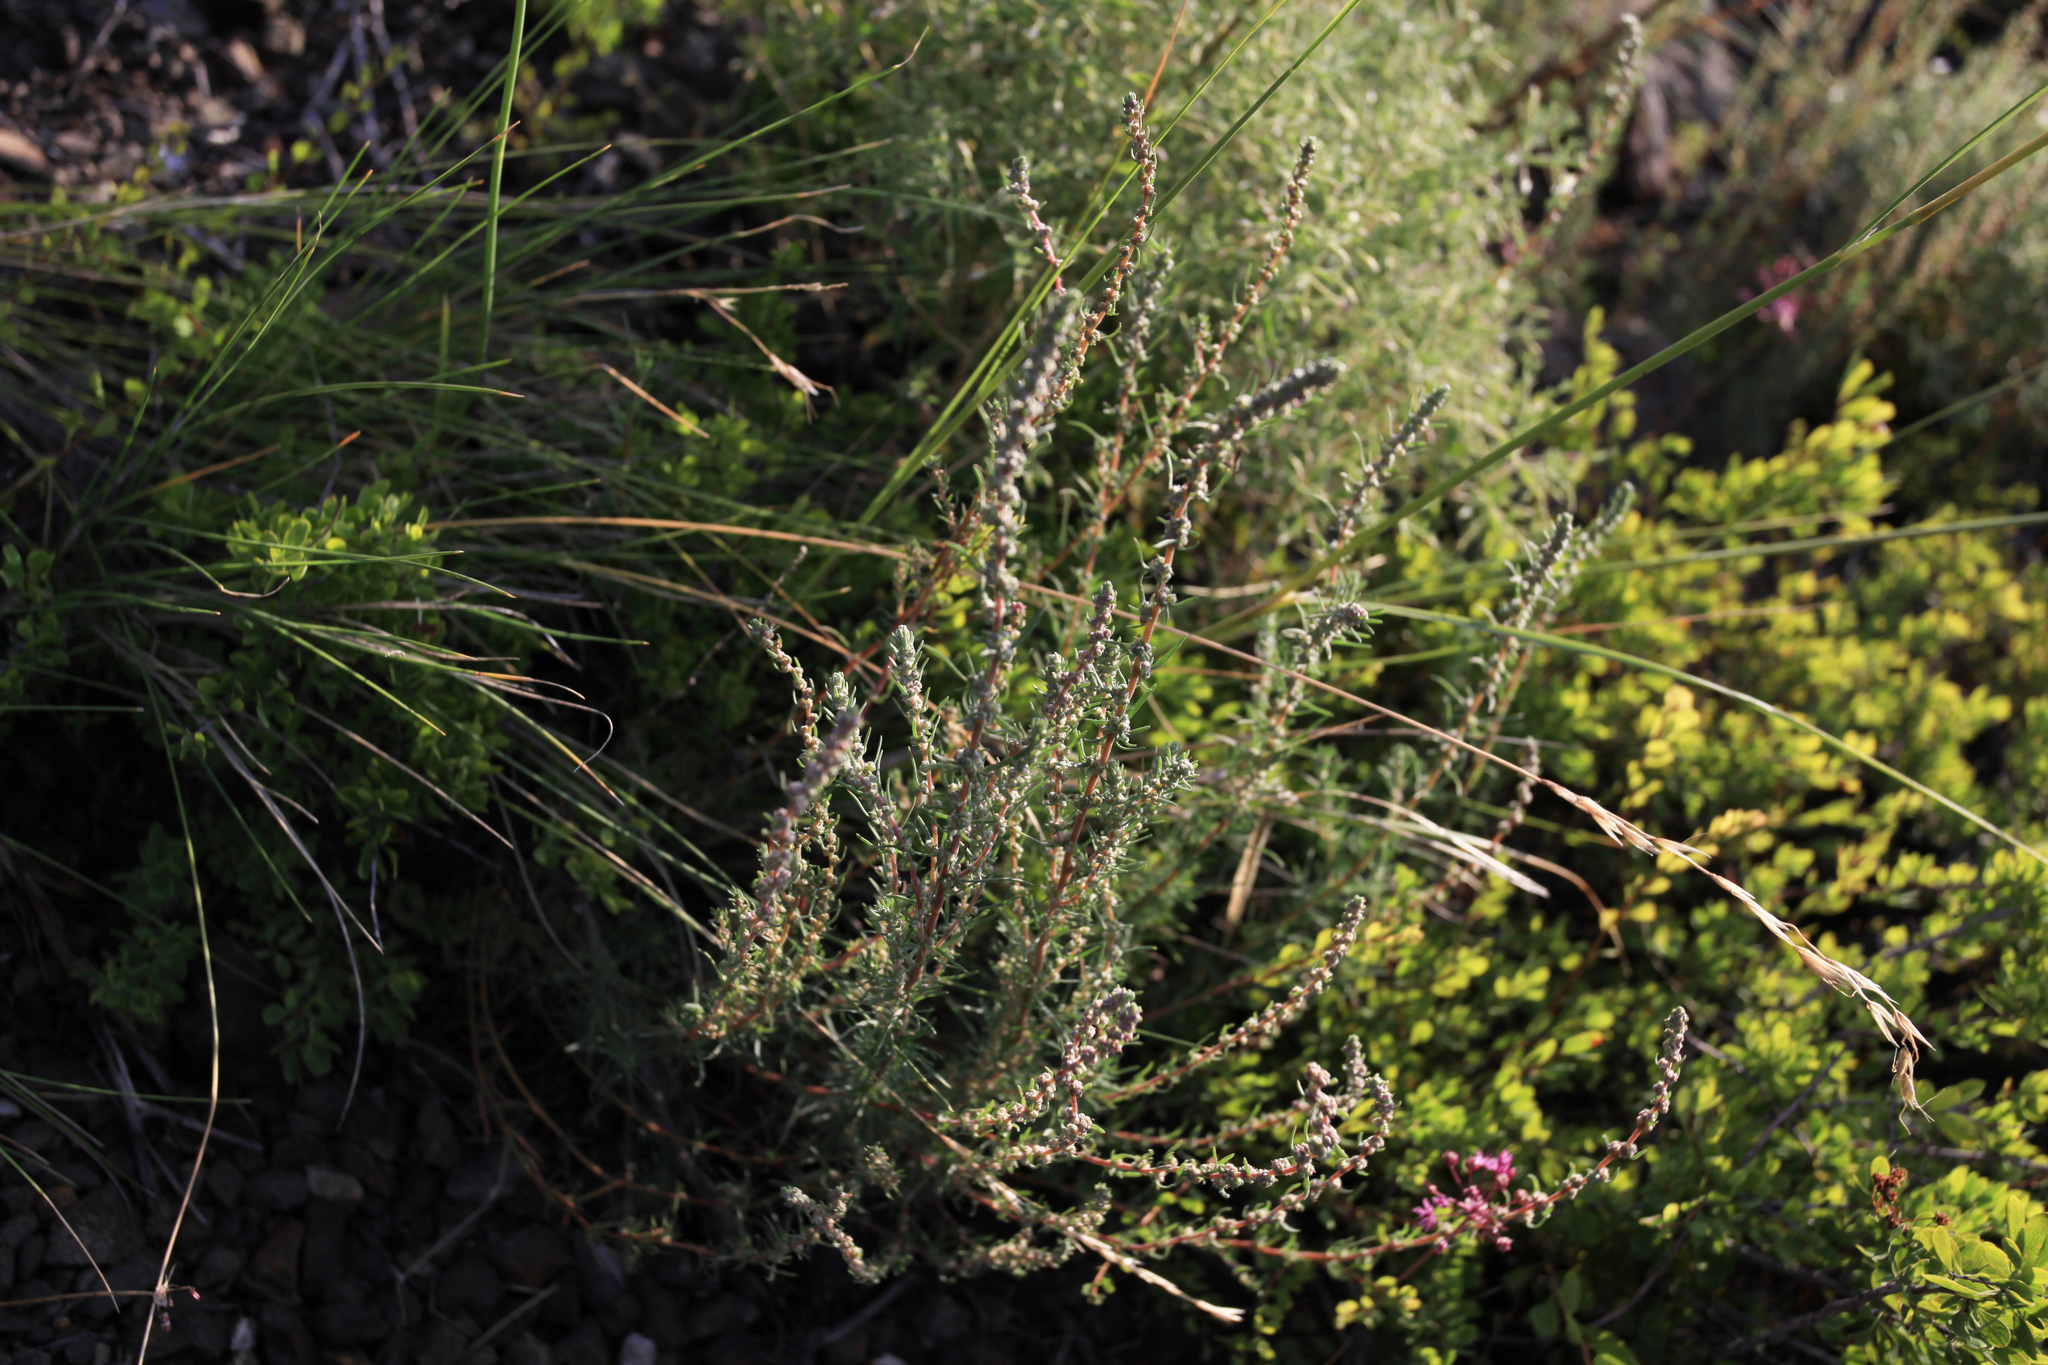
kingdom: Plantae
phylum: Tracheophyta
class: Magnoliopsida
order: Caryophyllales
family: Amaranthaceae
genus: Bassia
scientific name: Bassia prostrata
